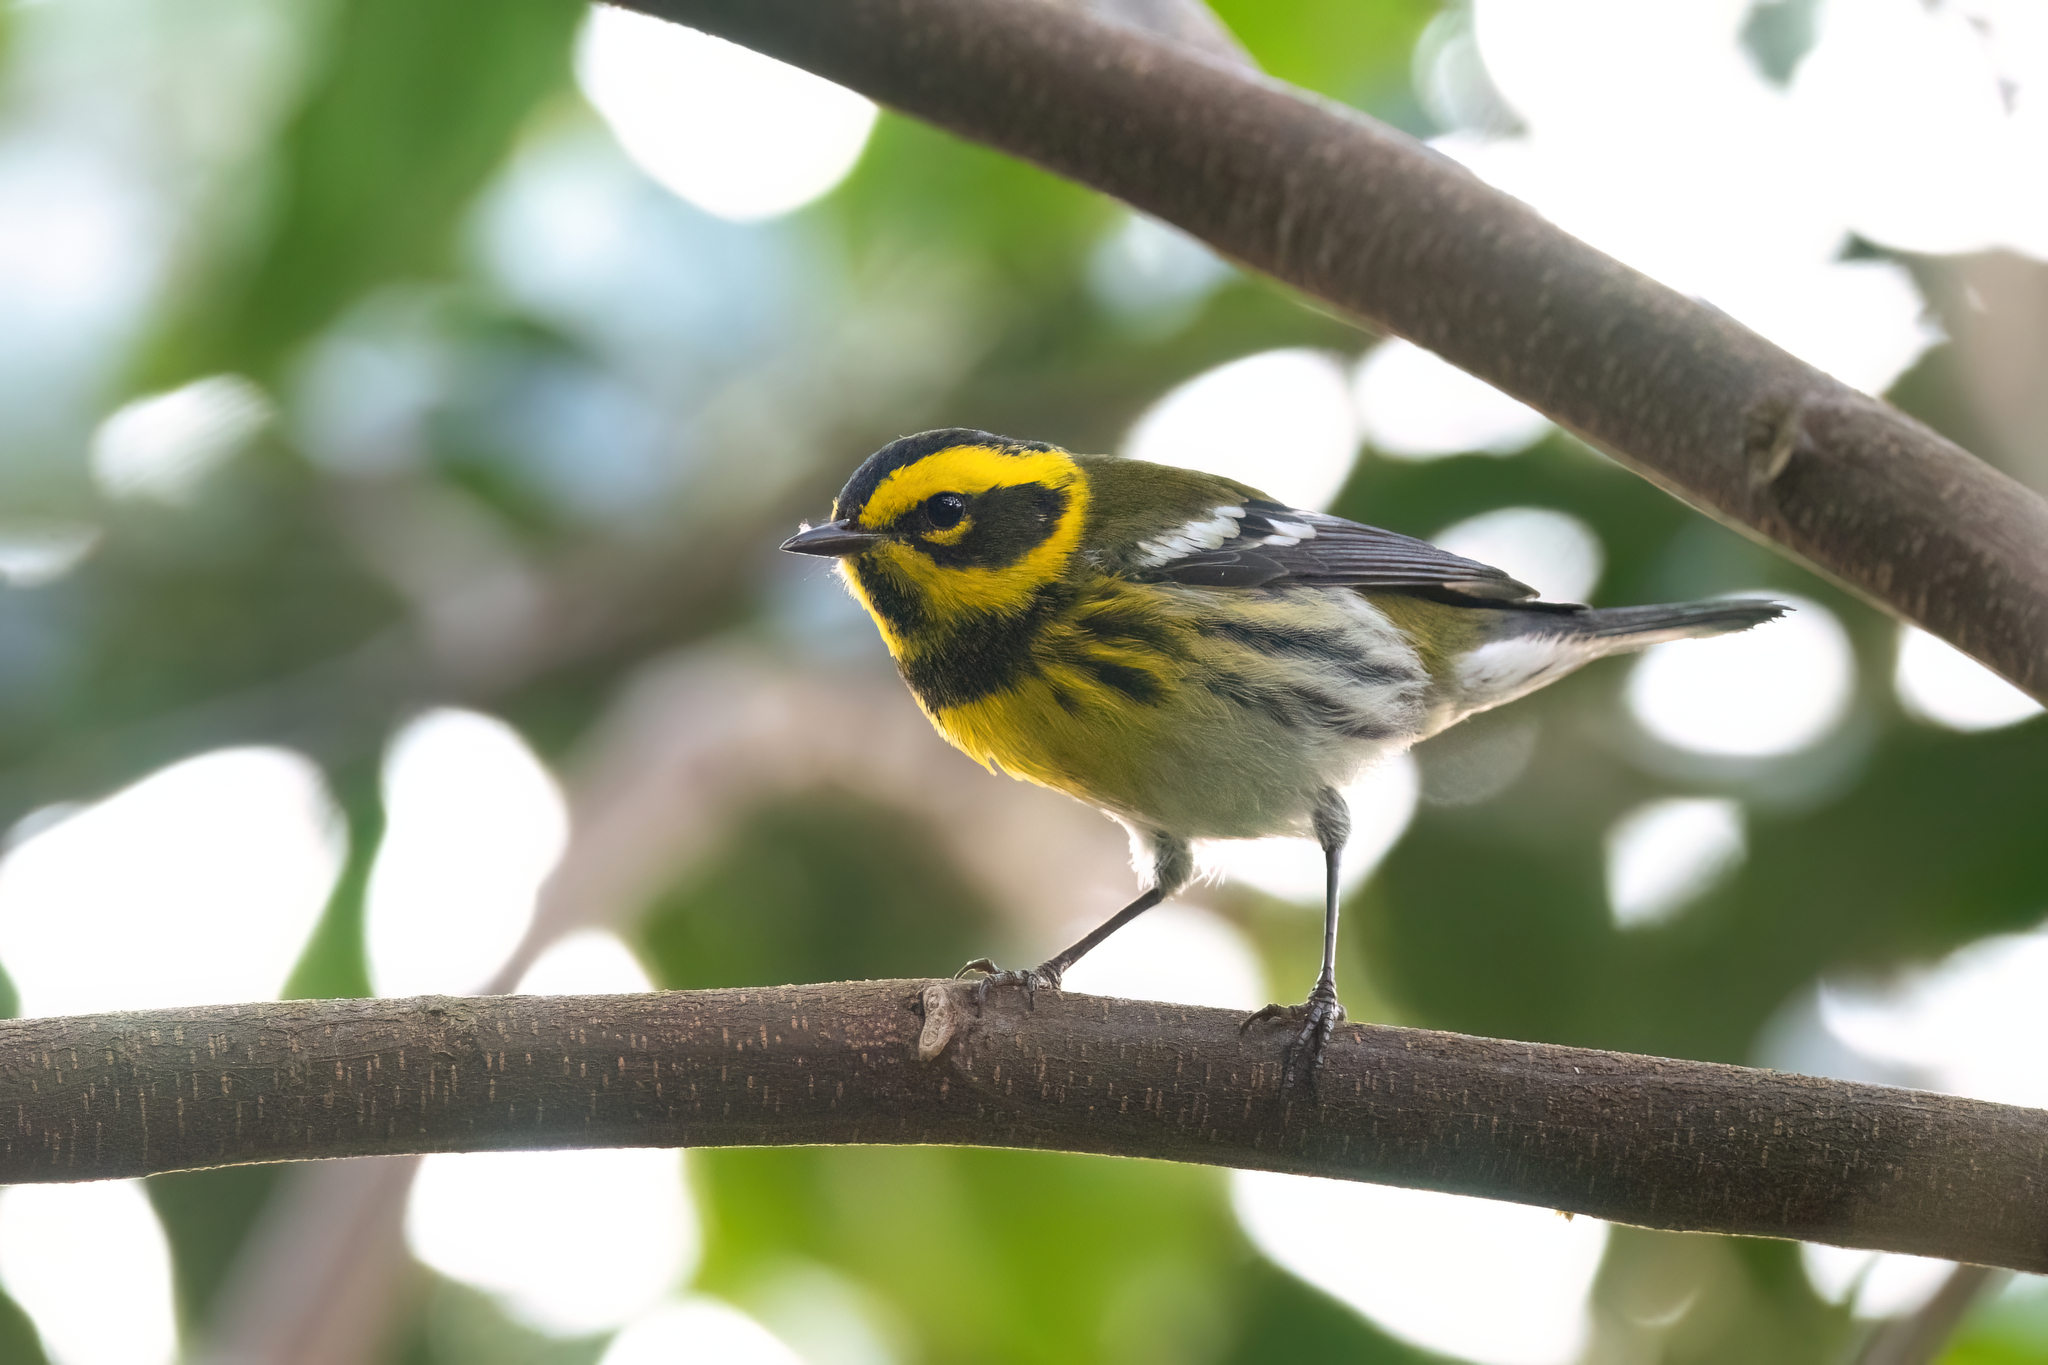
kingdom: Animalia
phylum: Chordata
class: Aves
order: Passeriformes
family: Parulidae
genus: Setophaga
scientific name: Setophaga townsendi
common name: Townsend's warbler
